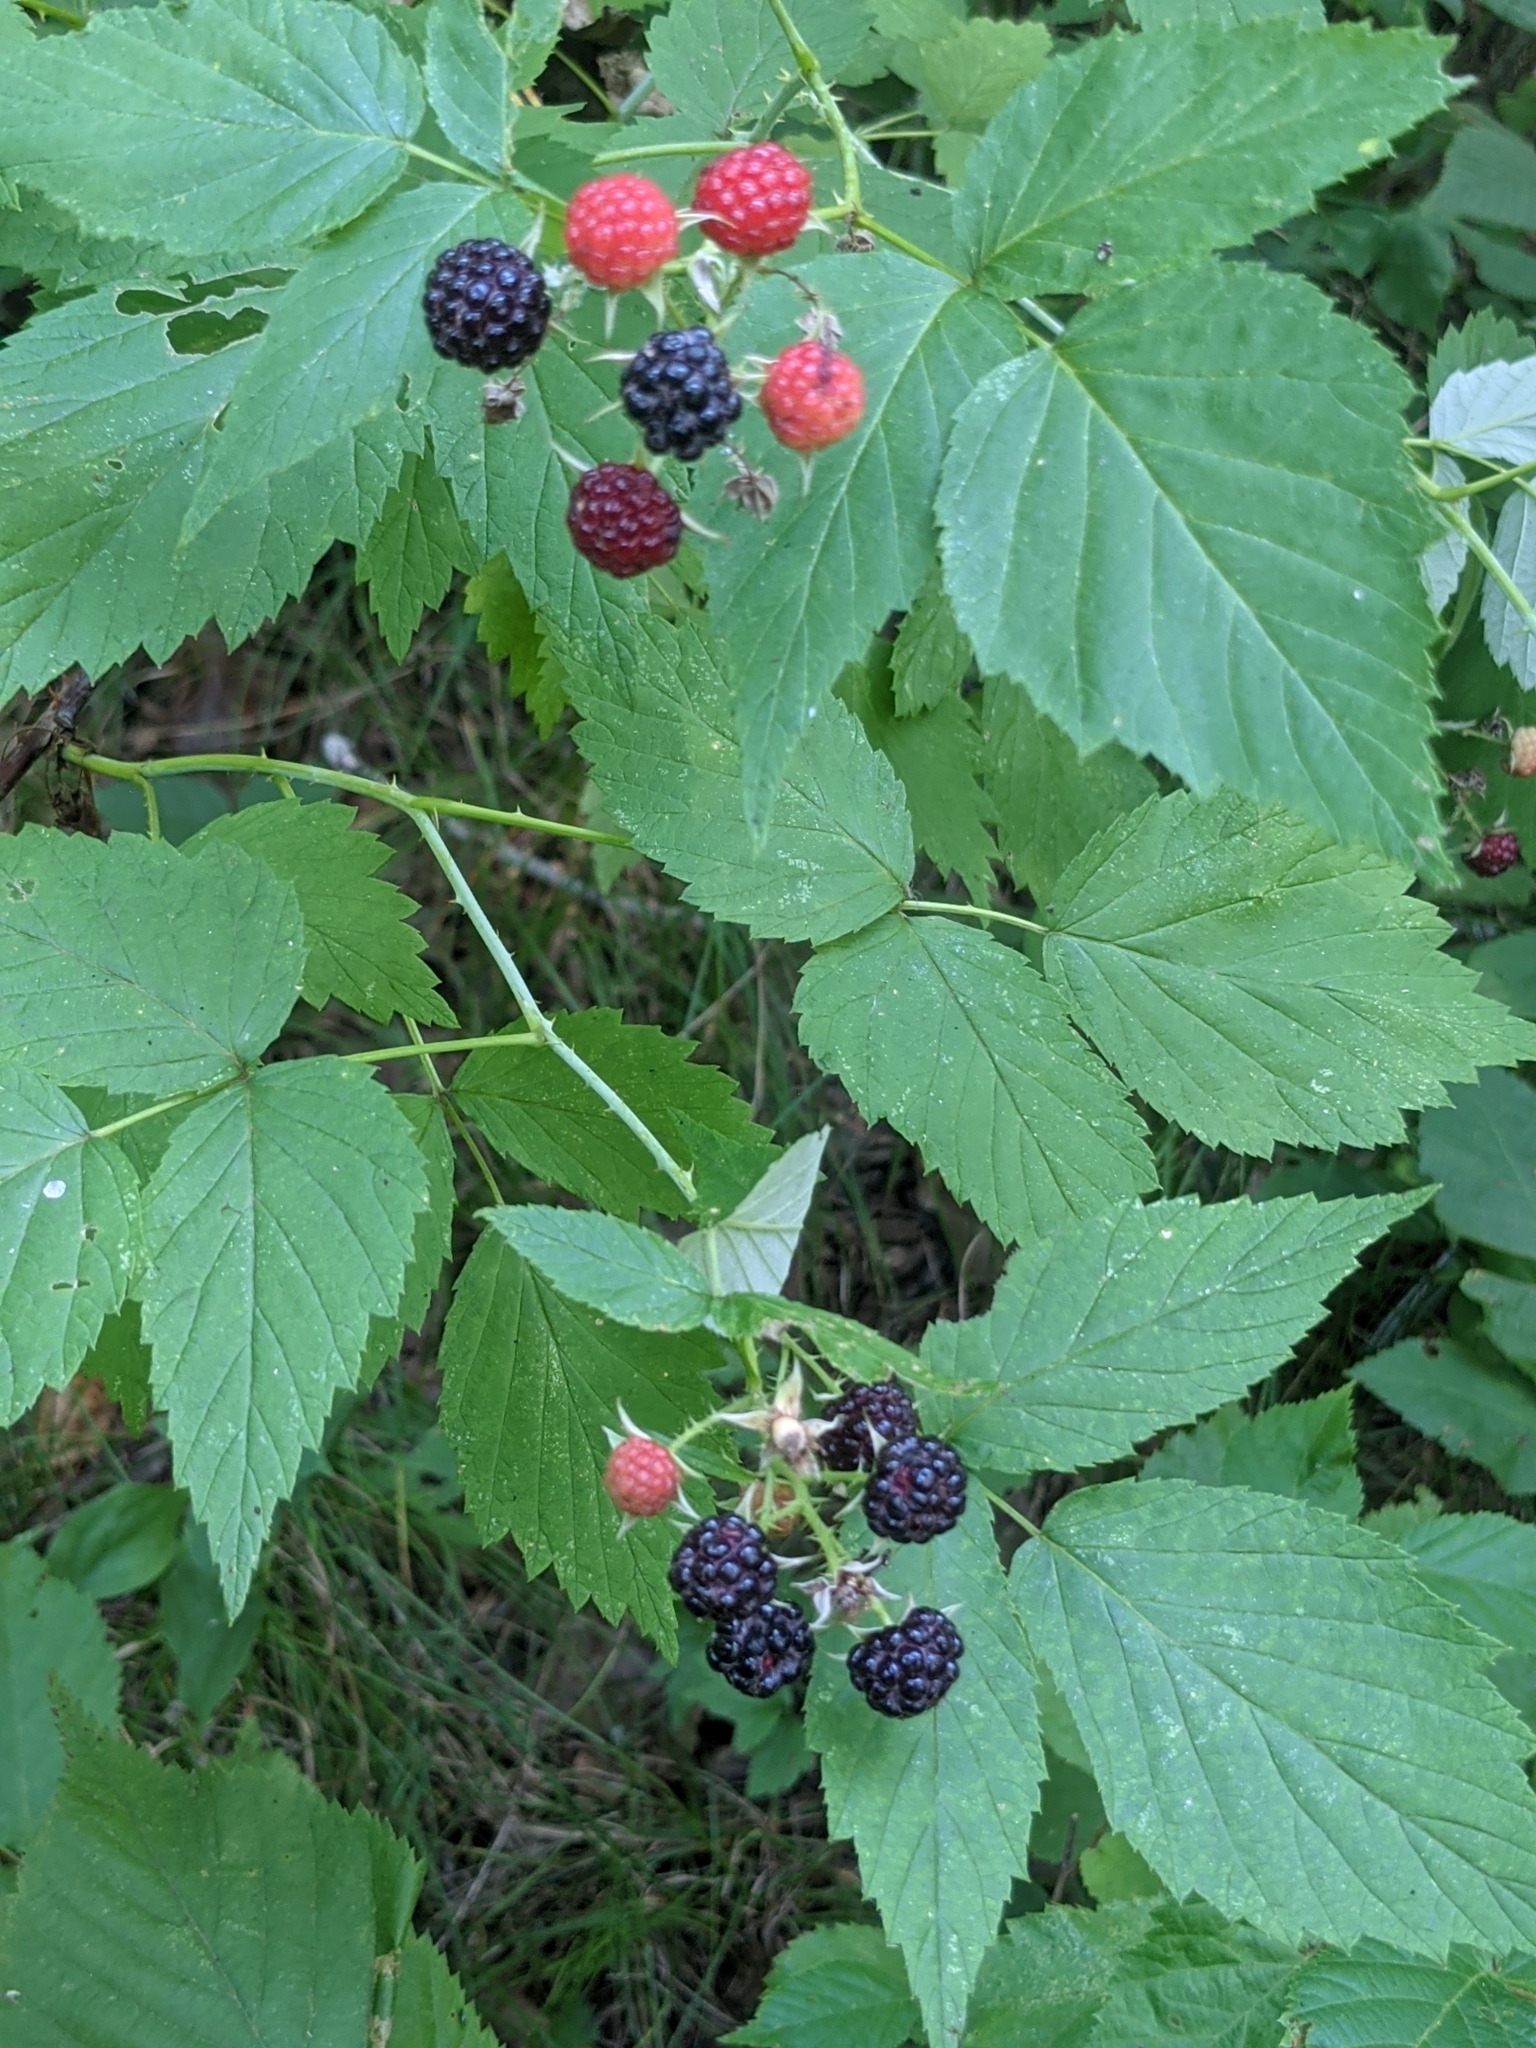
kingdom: Plantae
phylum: Tracheophyta
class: Magnoliopsida
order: Rosales
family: Rosaceae
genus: Rubus
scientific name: Rubus occidentalis
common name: Black raspberry
